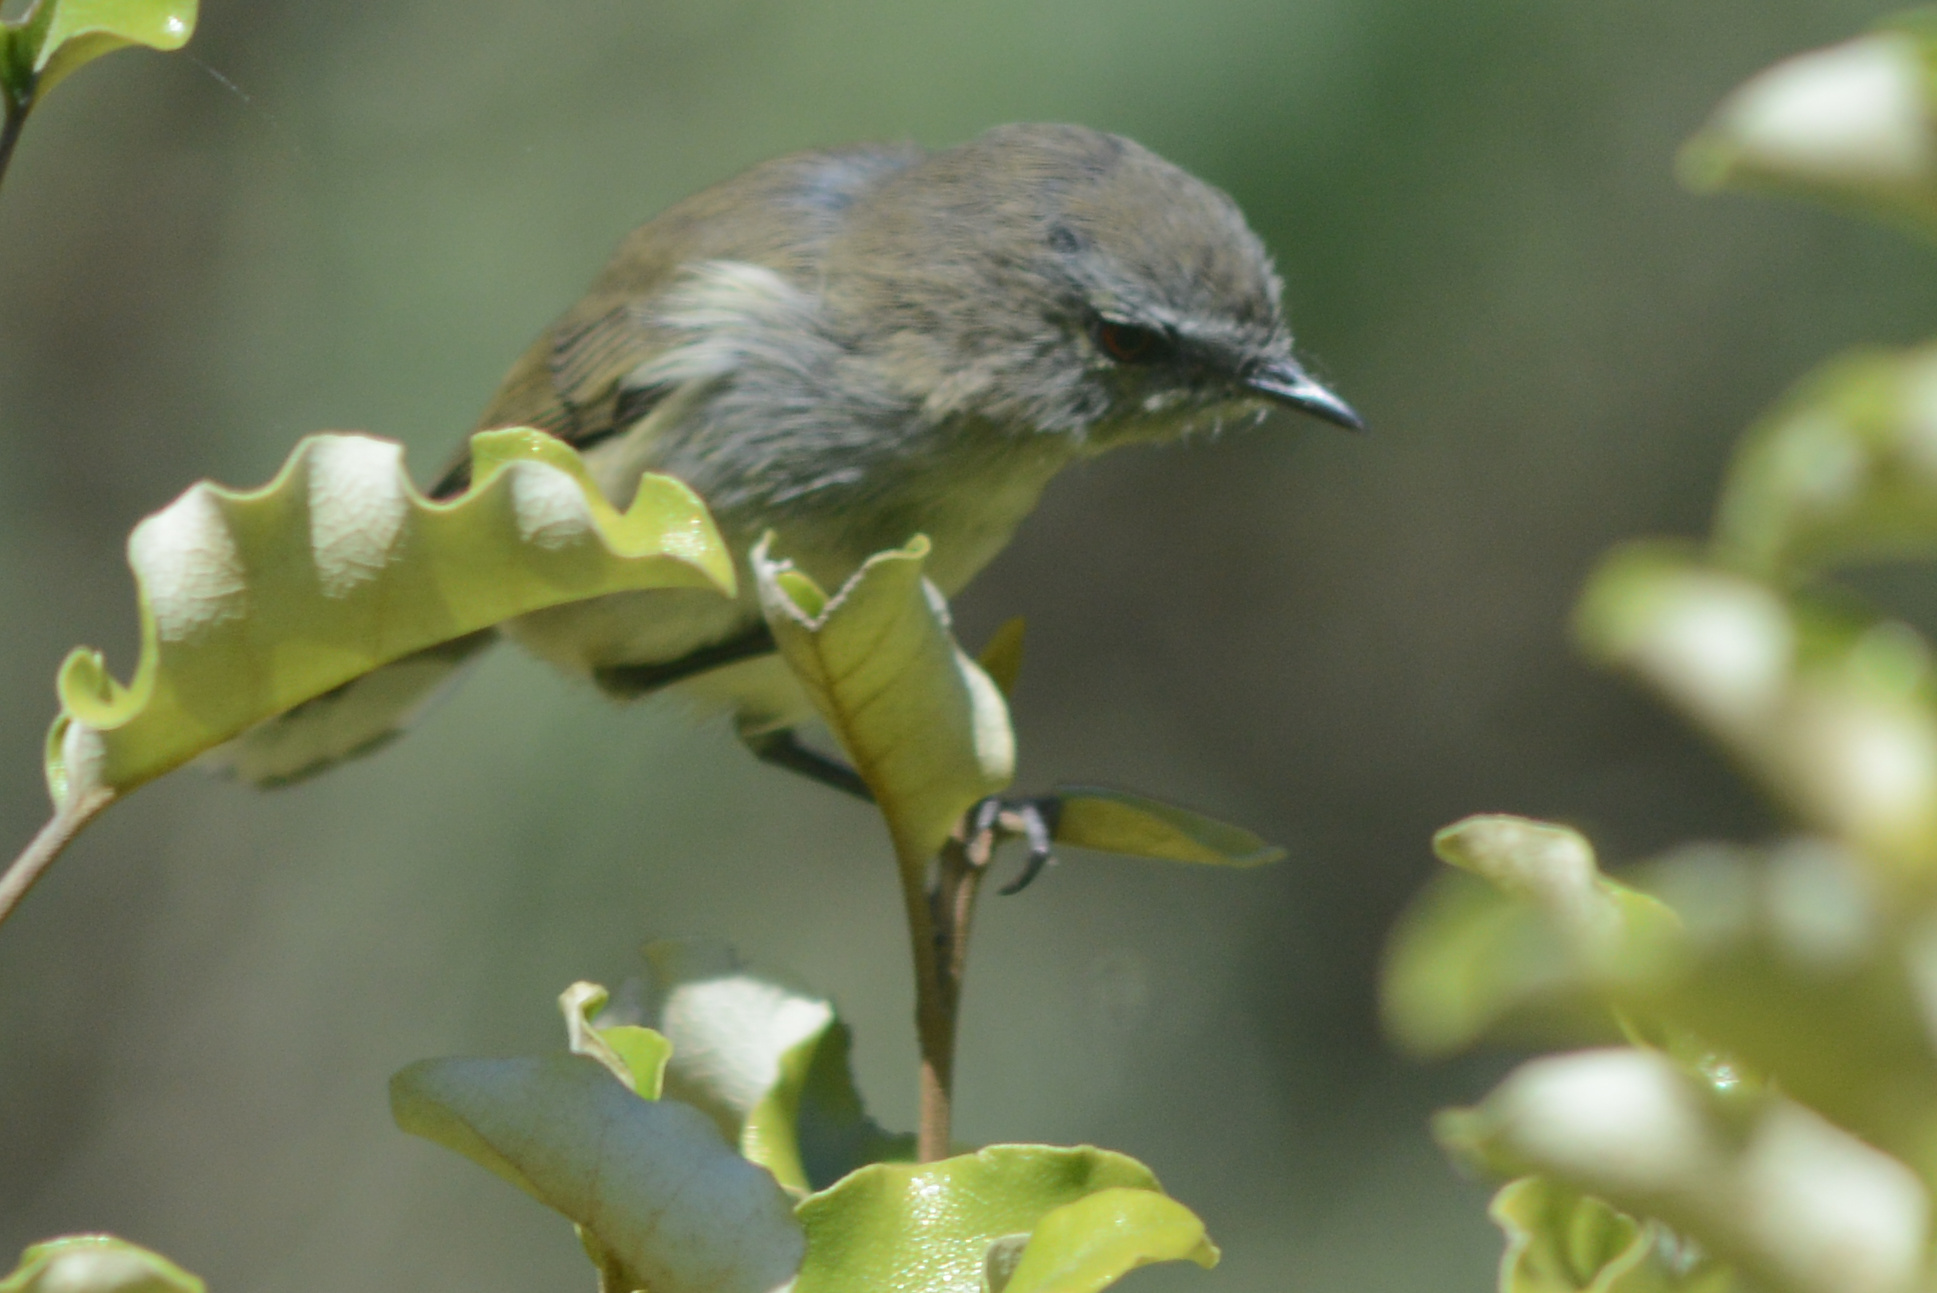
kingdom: Animalia
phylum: Chordata
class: Aves
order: Passeriformes
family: Acanthizidae
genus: Gerygone
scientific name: Gerygone igata
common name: Grey gerygone
